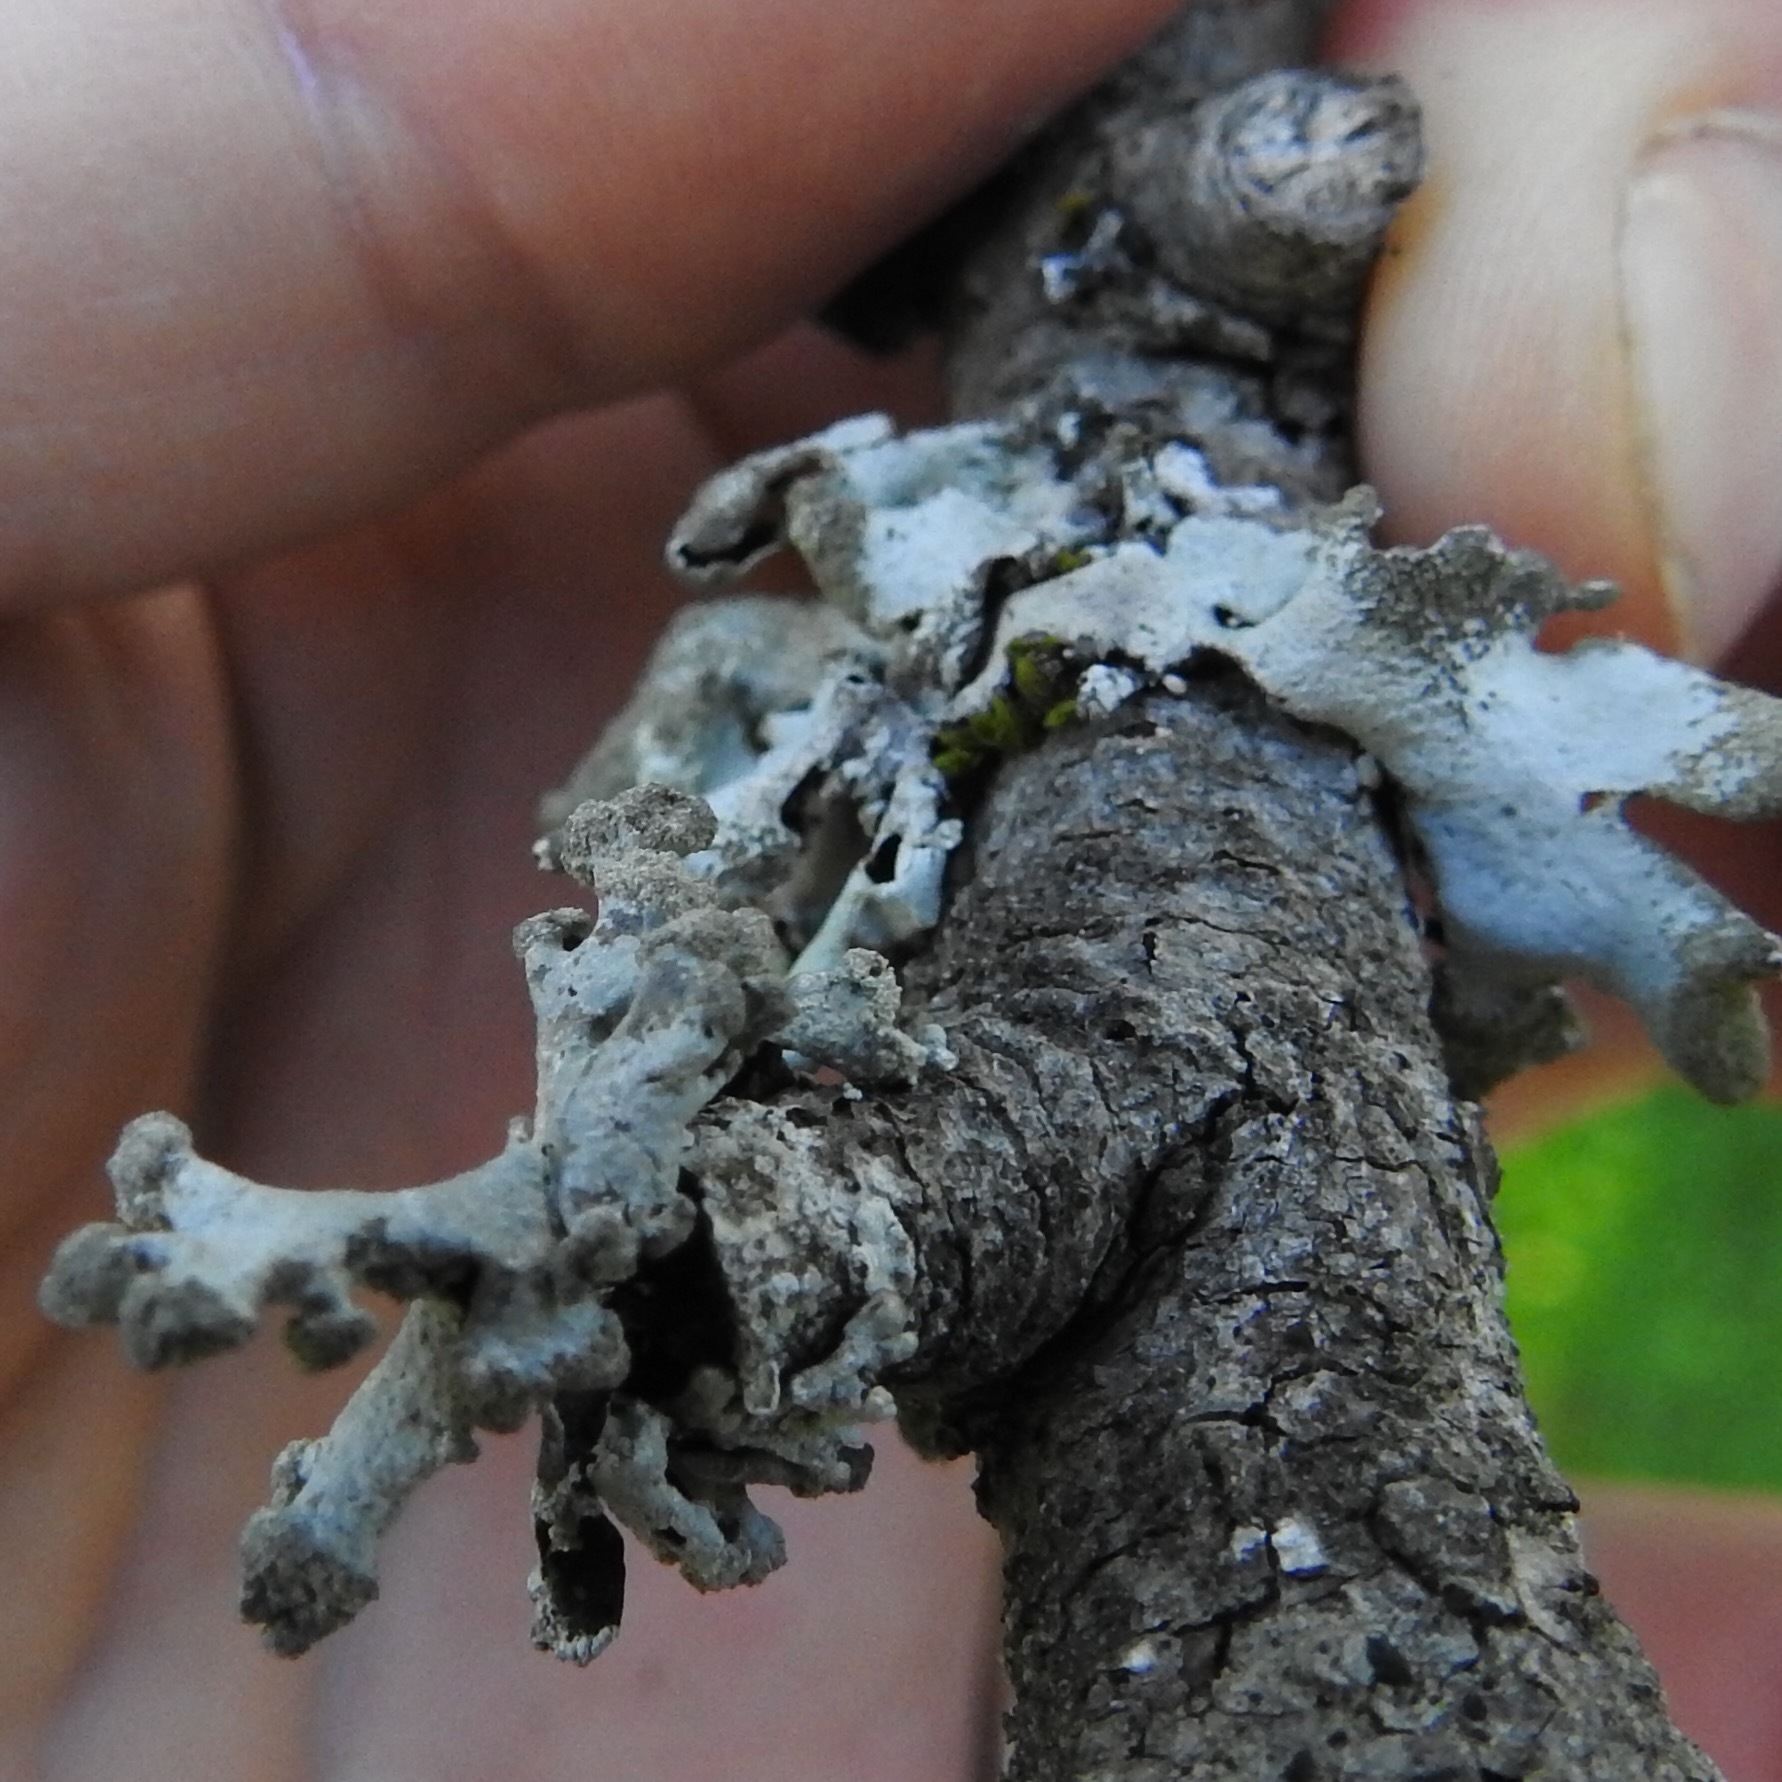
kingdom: Fungi
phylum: Ascomycota
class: Lecanoromycetes
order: Lecanorales
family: Parmeliaceae
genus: Hypotrachyna
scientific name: Hypotrachyna revoluta
